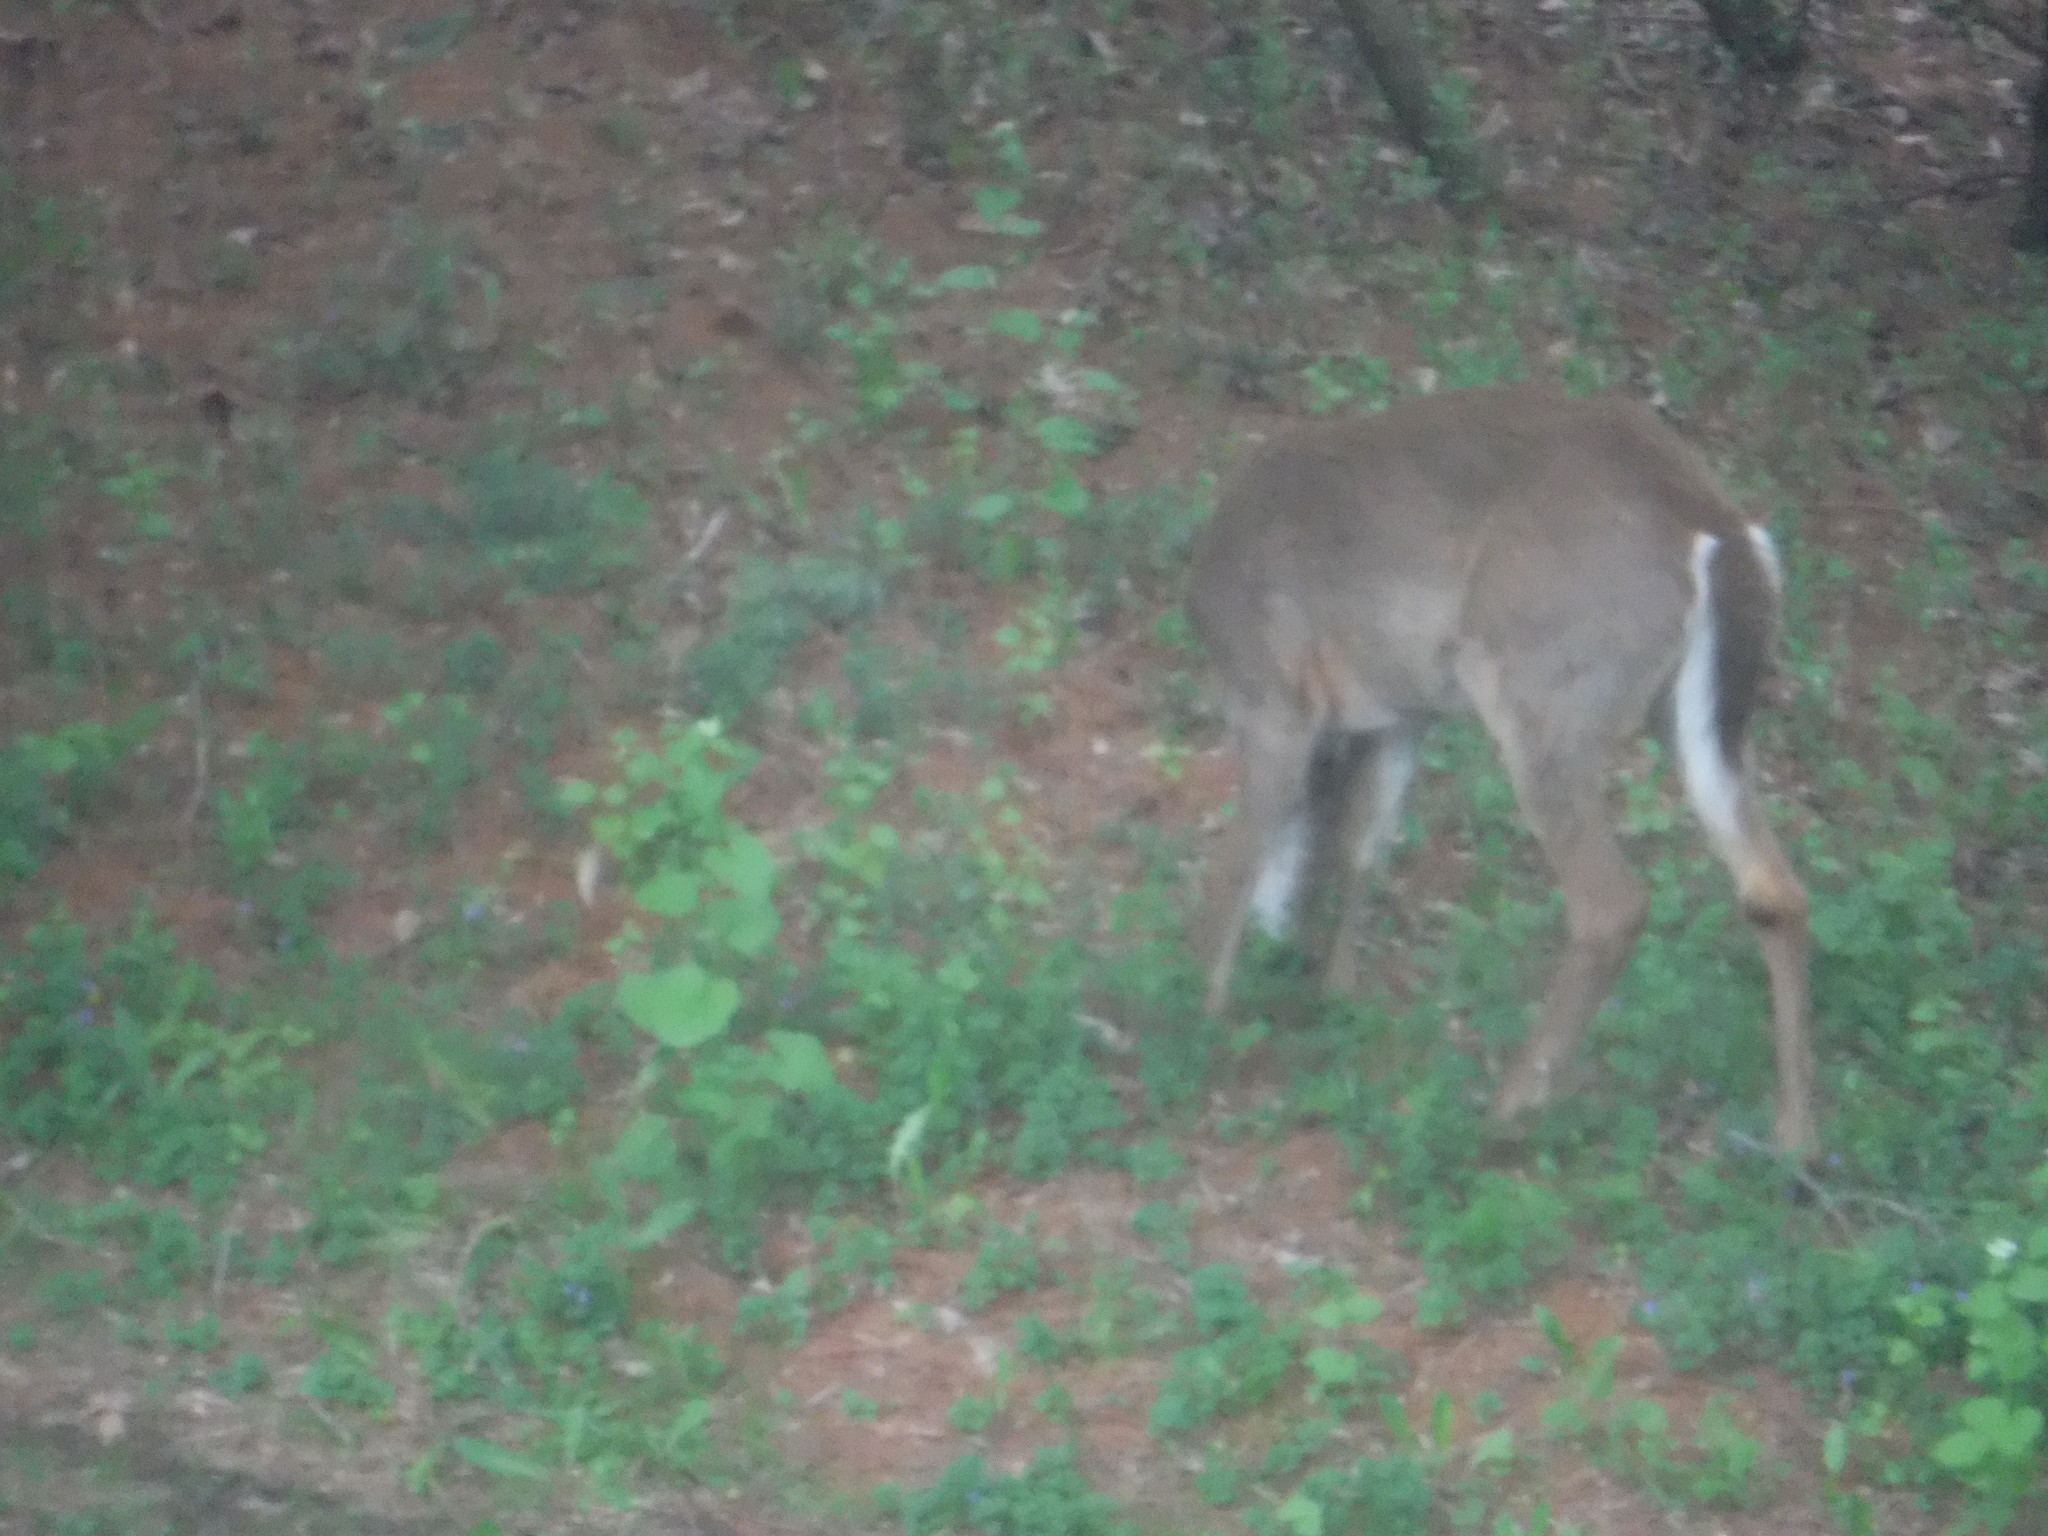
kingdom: Animalia
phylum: Chordata
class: Mammalia
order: Artiodactyla
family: Cervidae
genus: Odocoileus
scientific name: Odocoileus virginianus
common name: White-tailed deer
